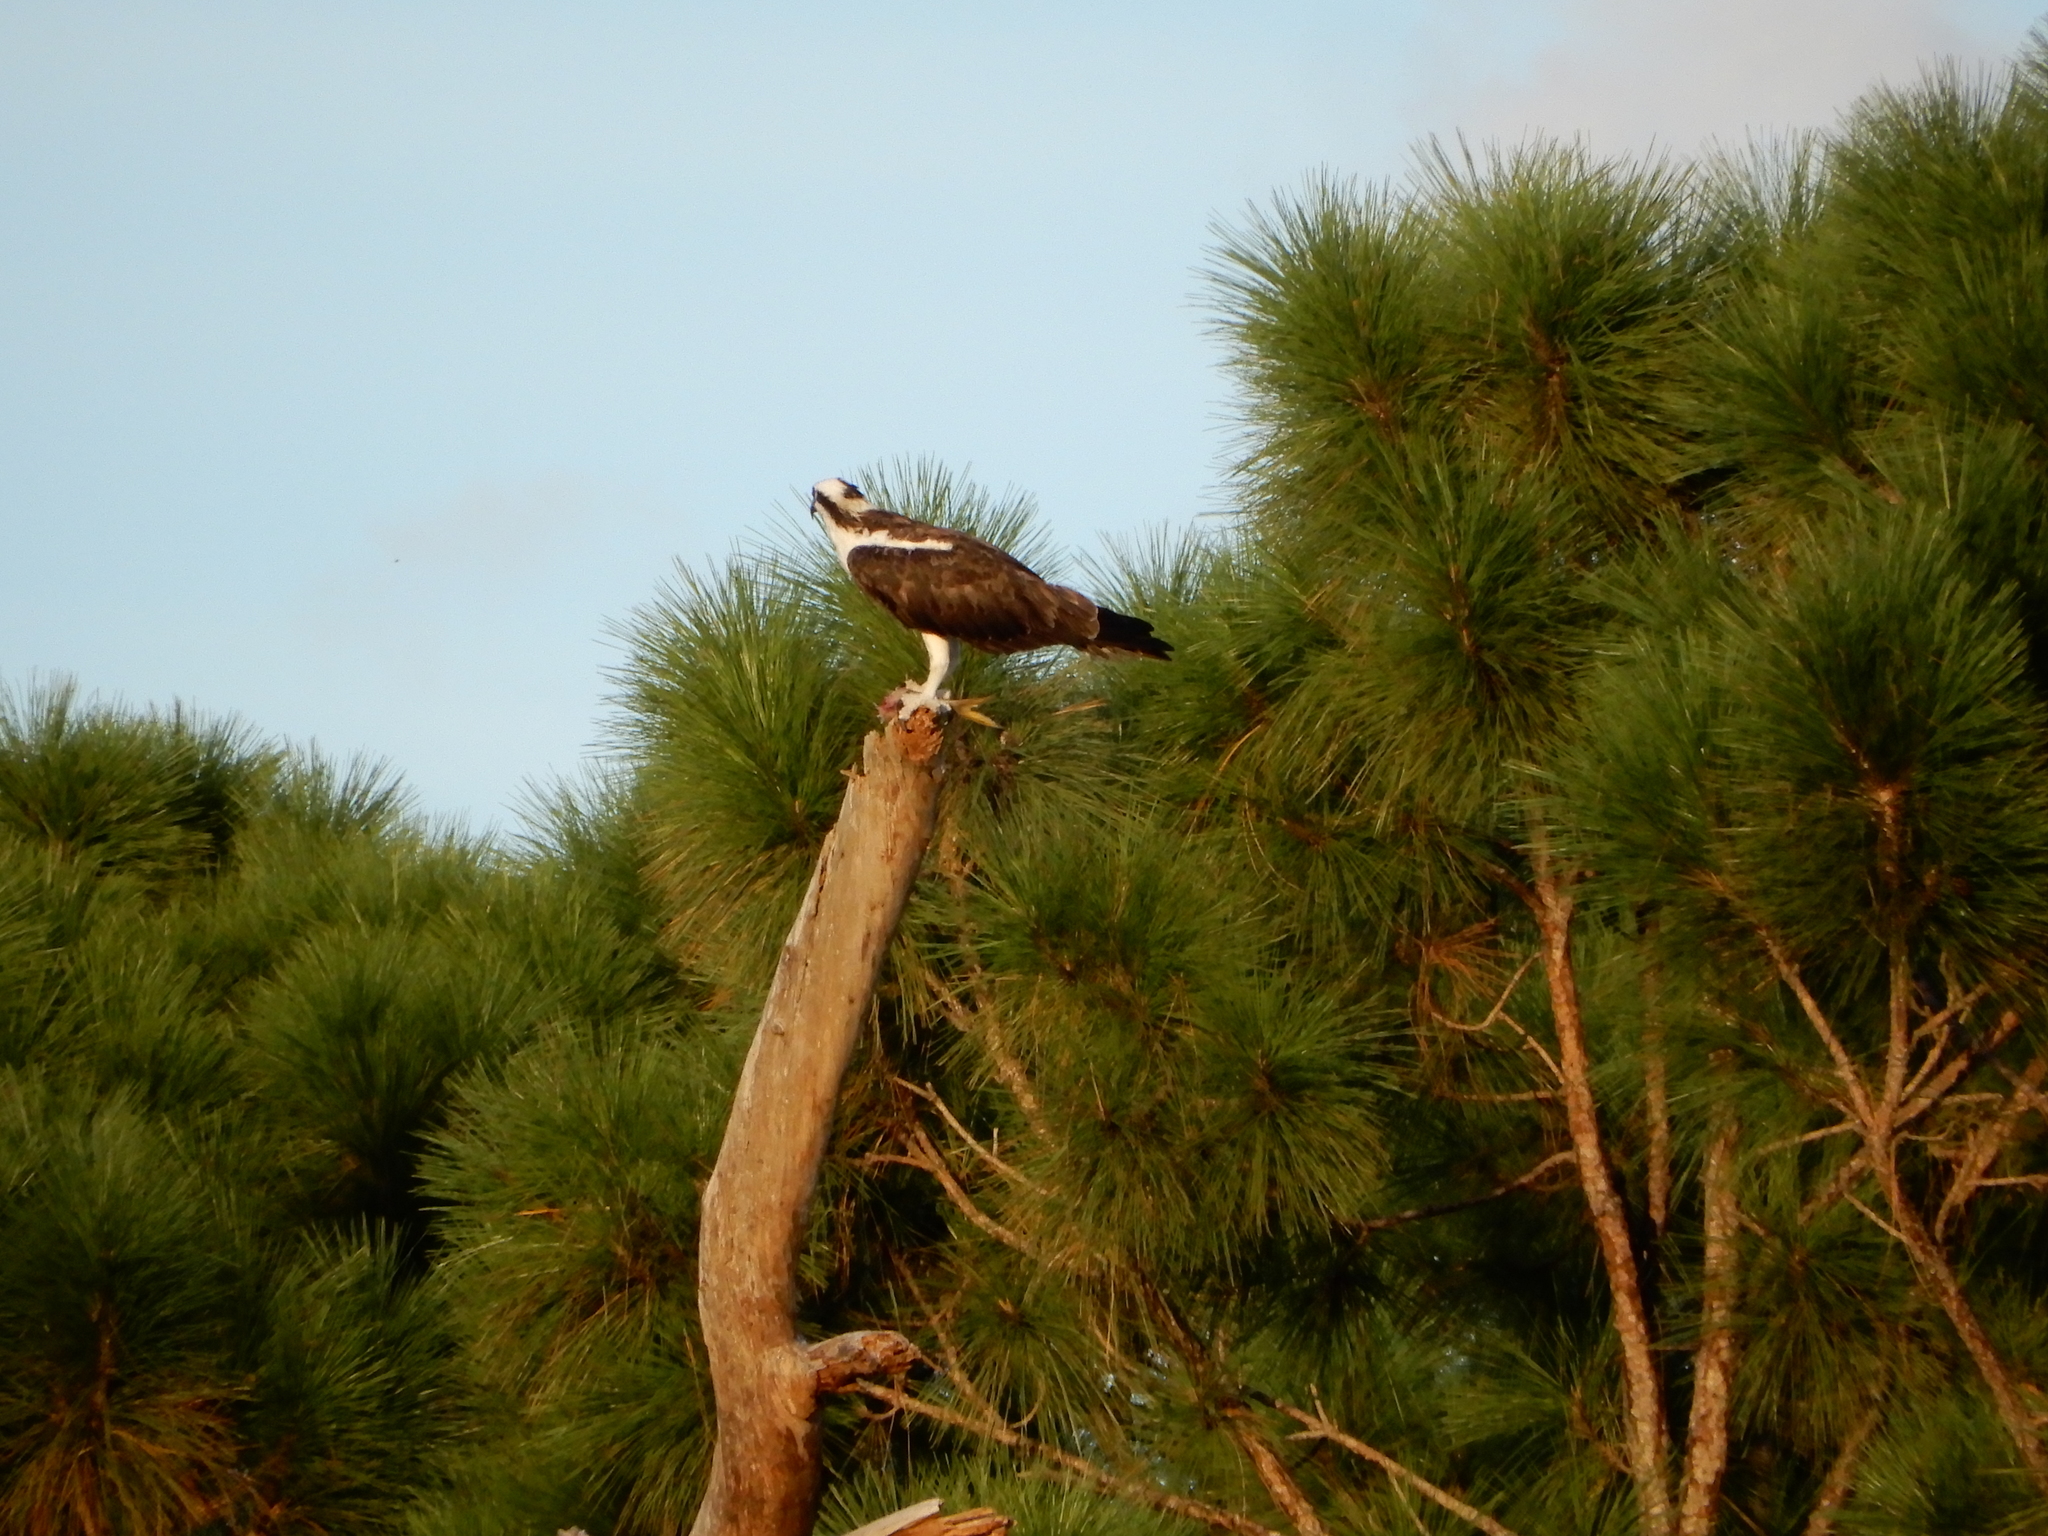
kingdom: Animalia
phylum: Chordata
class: Aves
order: Accipitriformes
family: Pandionidae
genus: Pandion
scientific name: Pandion haliaetus
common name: Osprey
